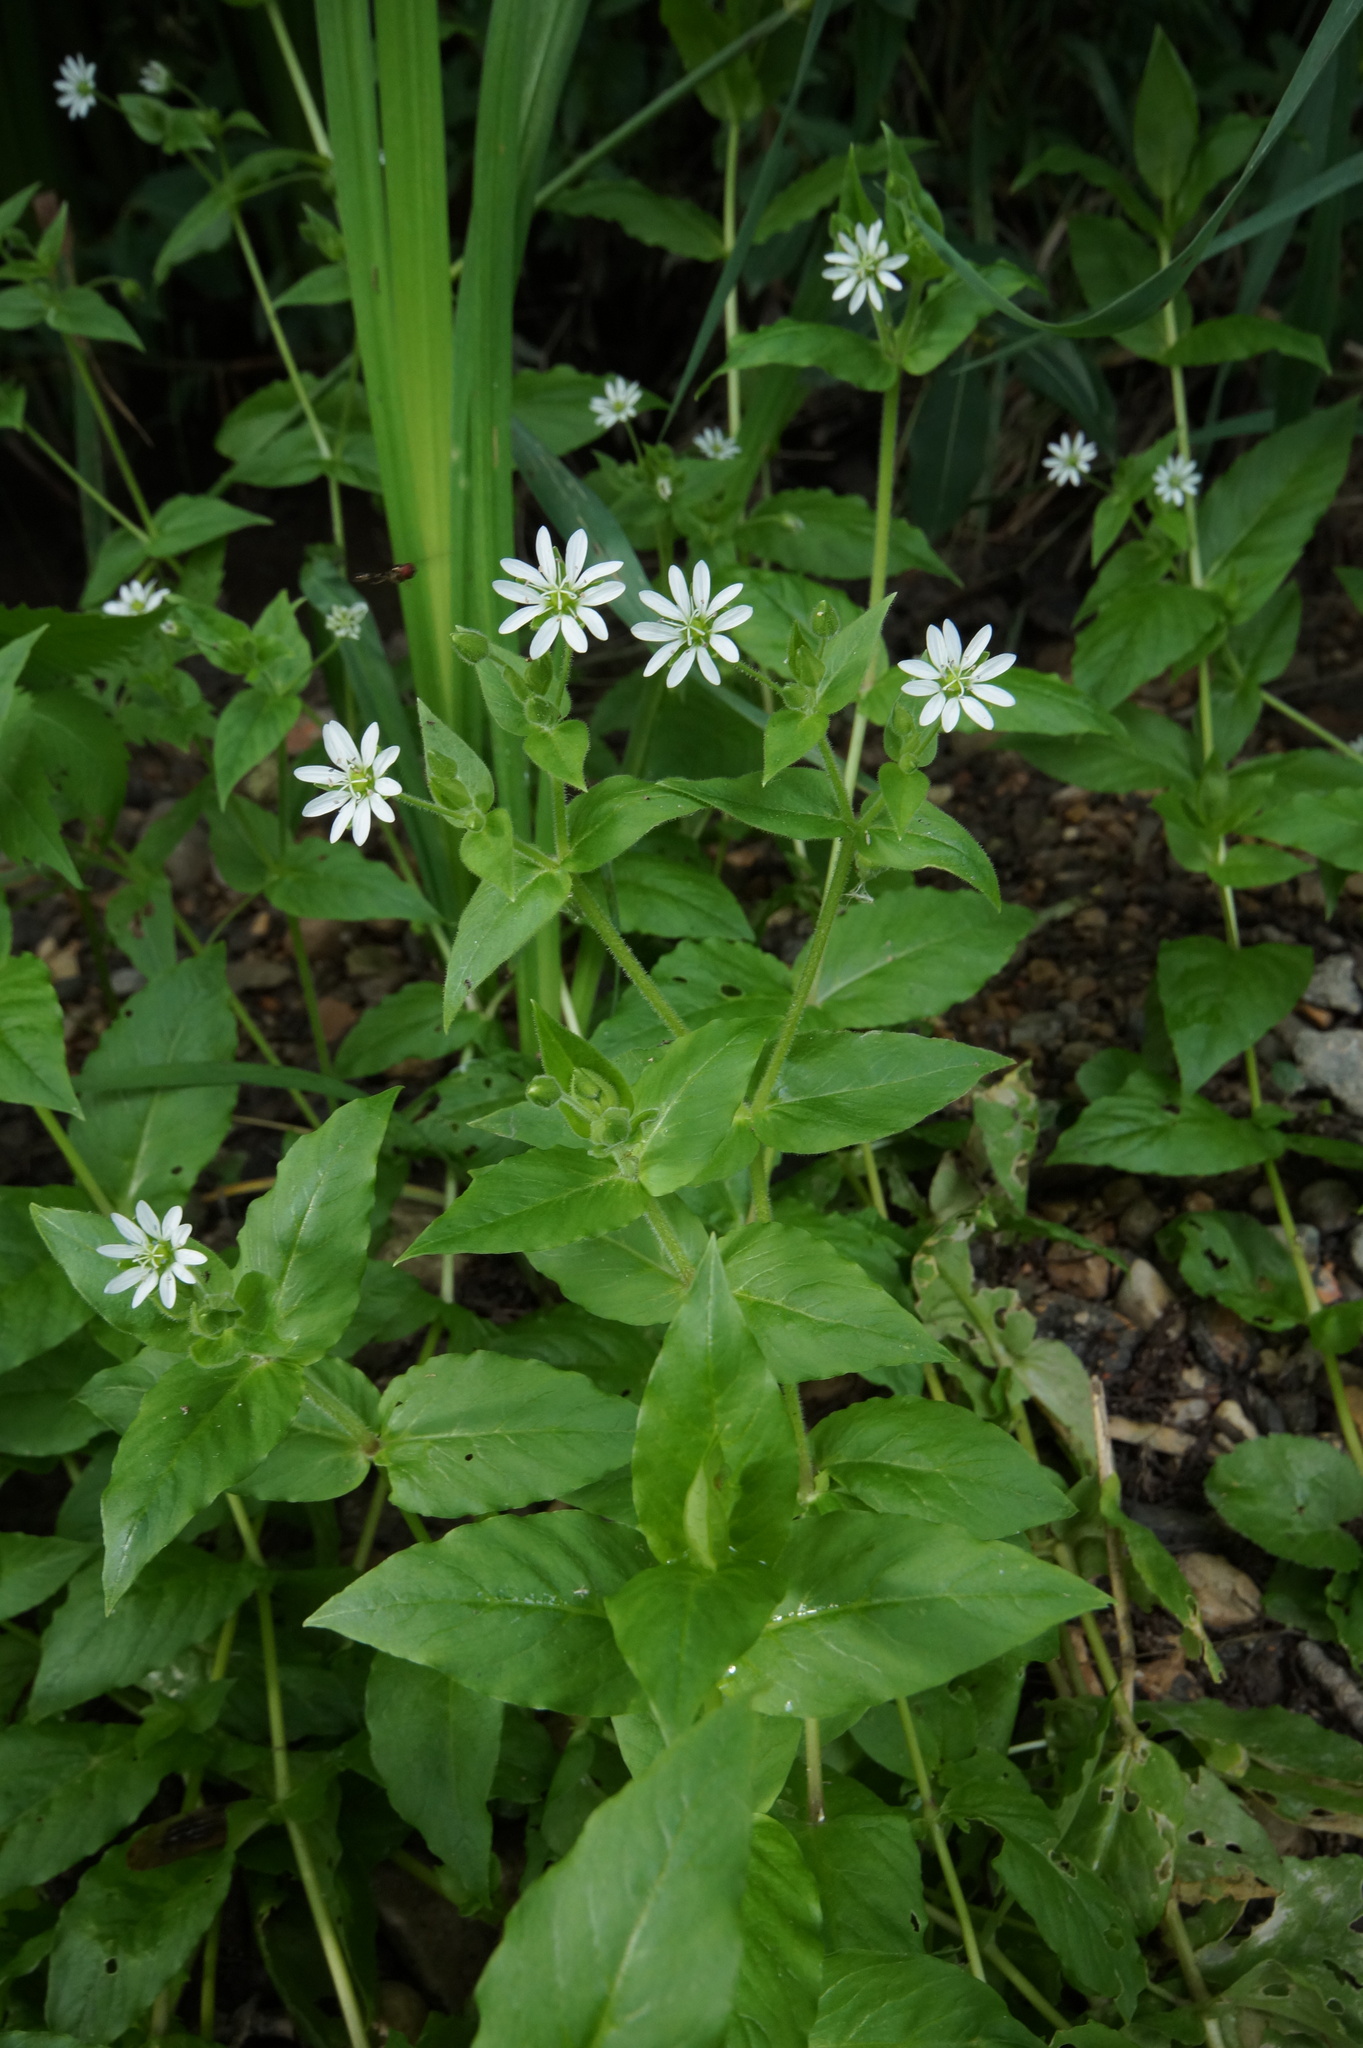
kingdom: Plantae
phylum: Tracheophyta
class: Magnoliopsida
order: Caryophyllales
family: Caryophyllaceae
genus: Stellaria
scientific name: Stellaria aquatica
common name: Water chickweed
